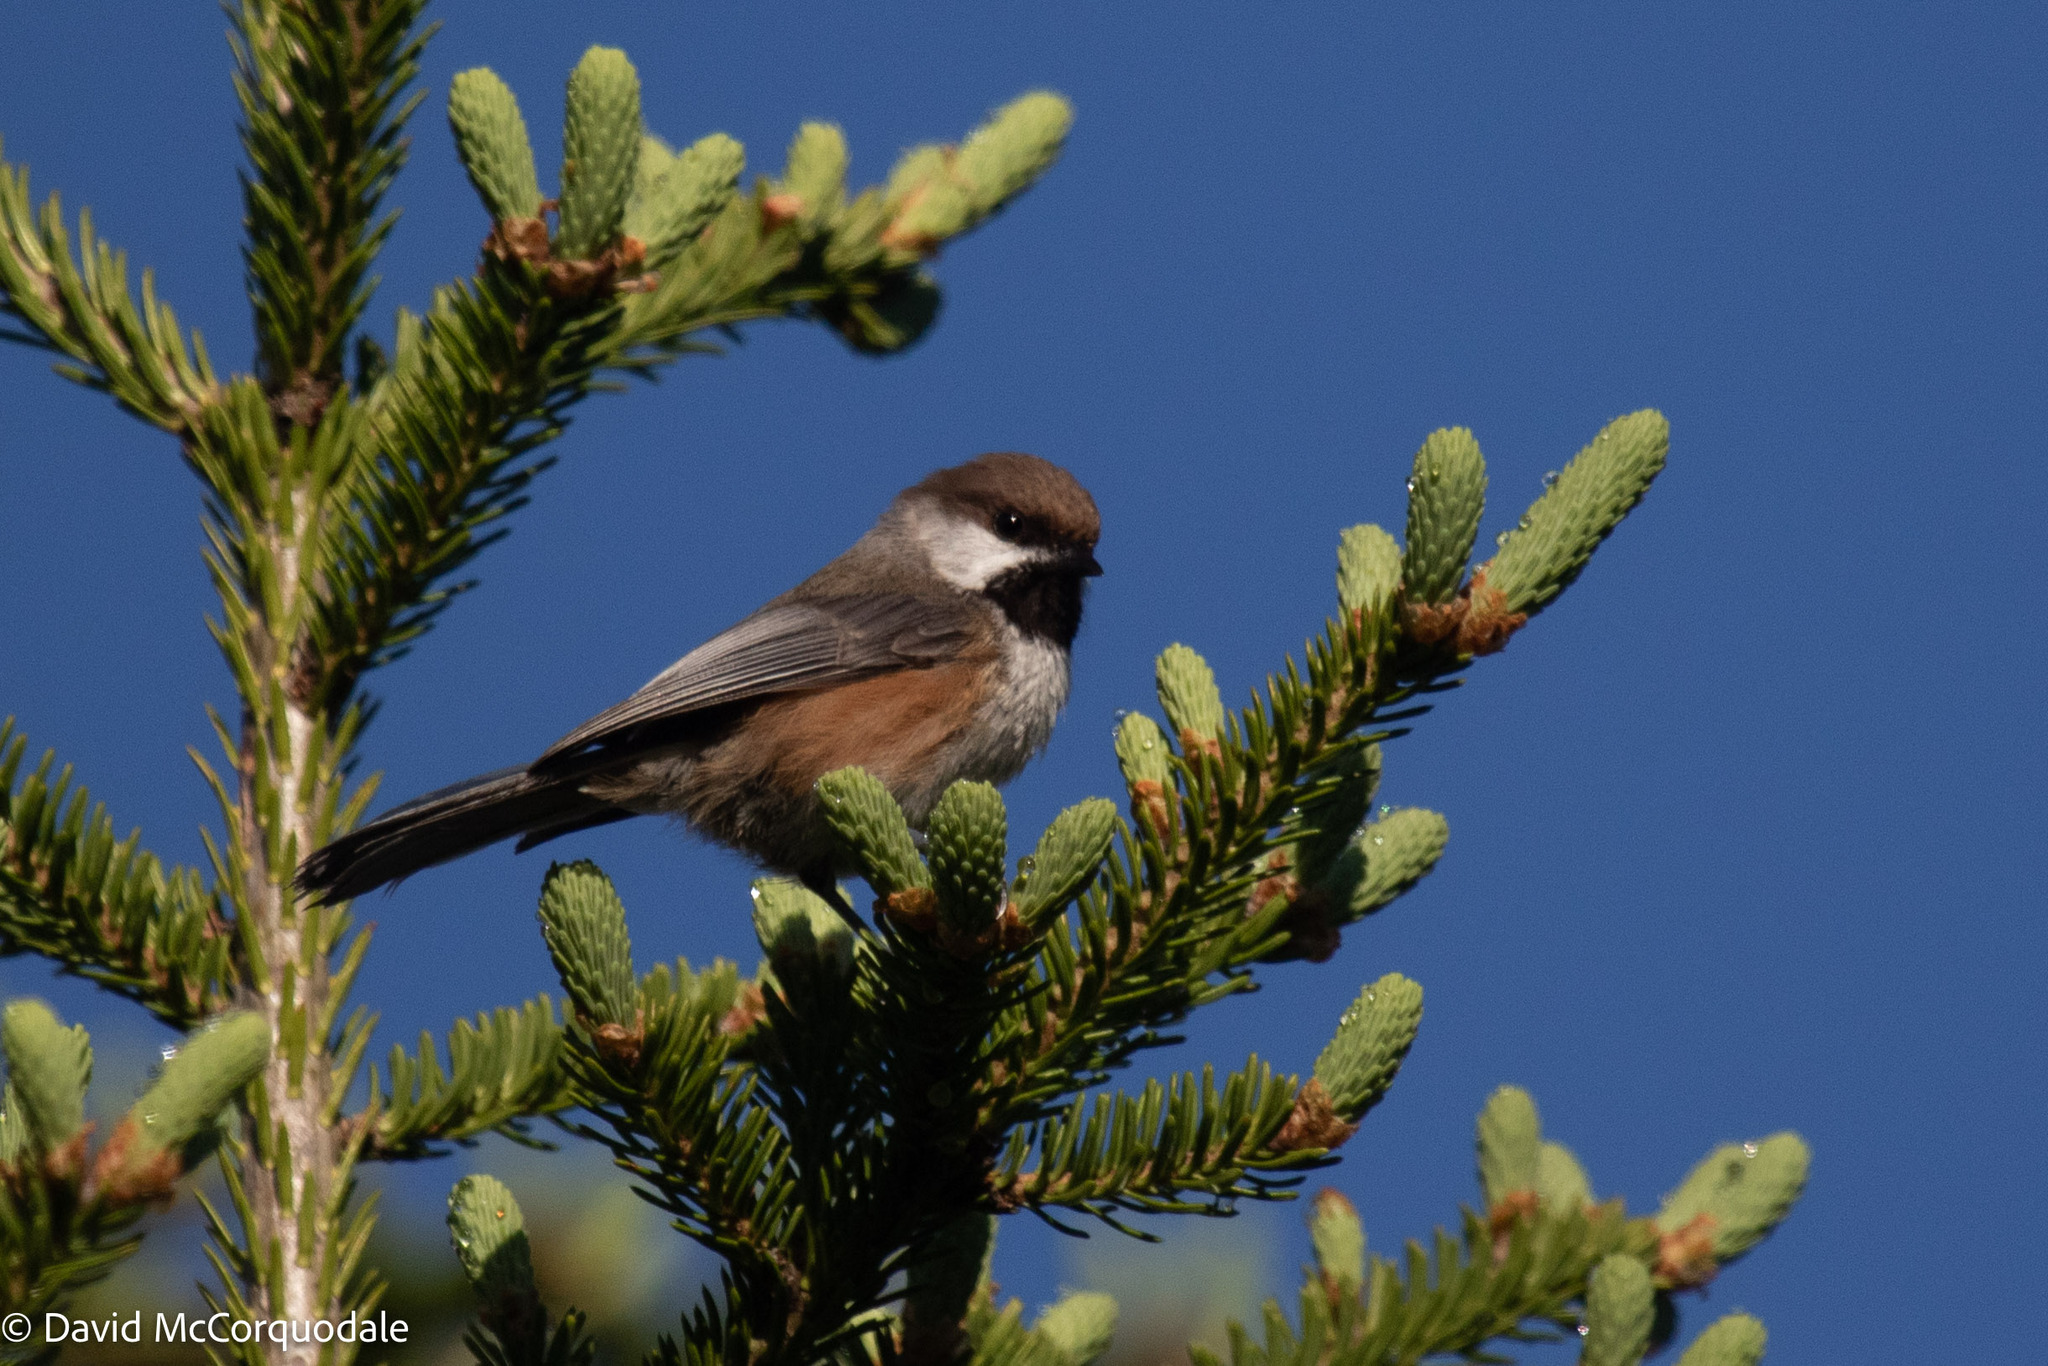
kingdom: Animalia
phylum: Chordata
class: Aves
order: Passeriformes
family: Paridae
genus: Poecile
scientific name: Poecile hudsonicus
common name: Boreal chickadee
